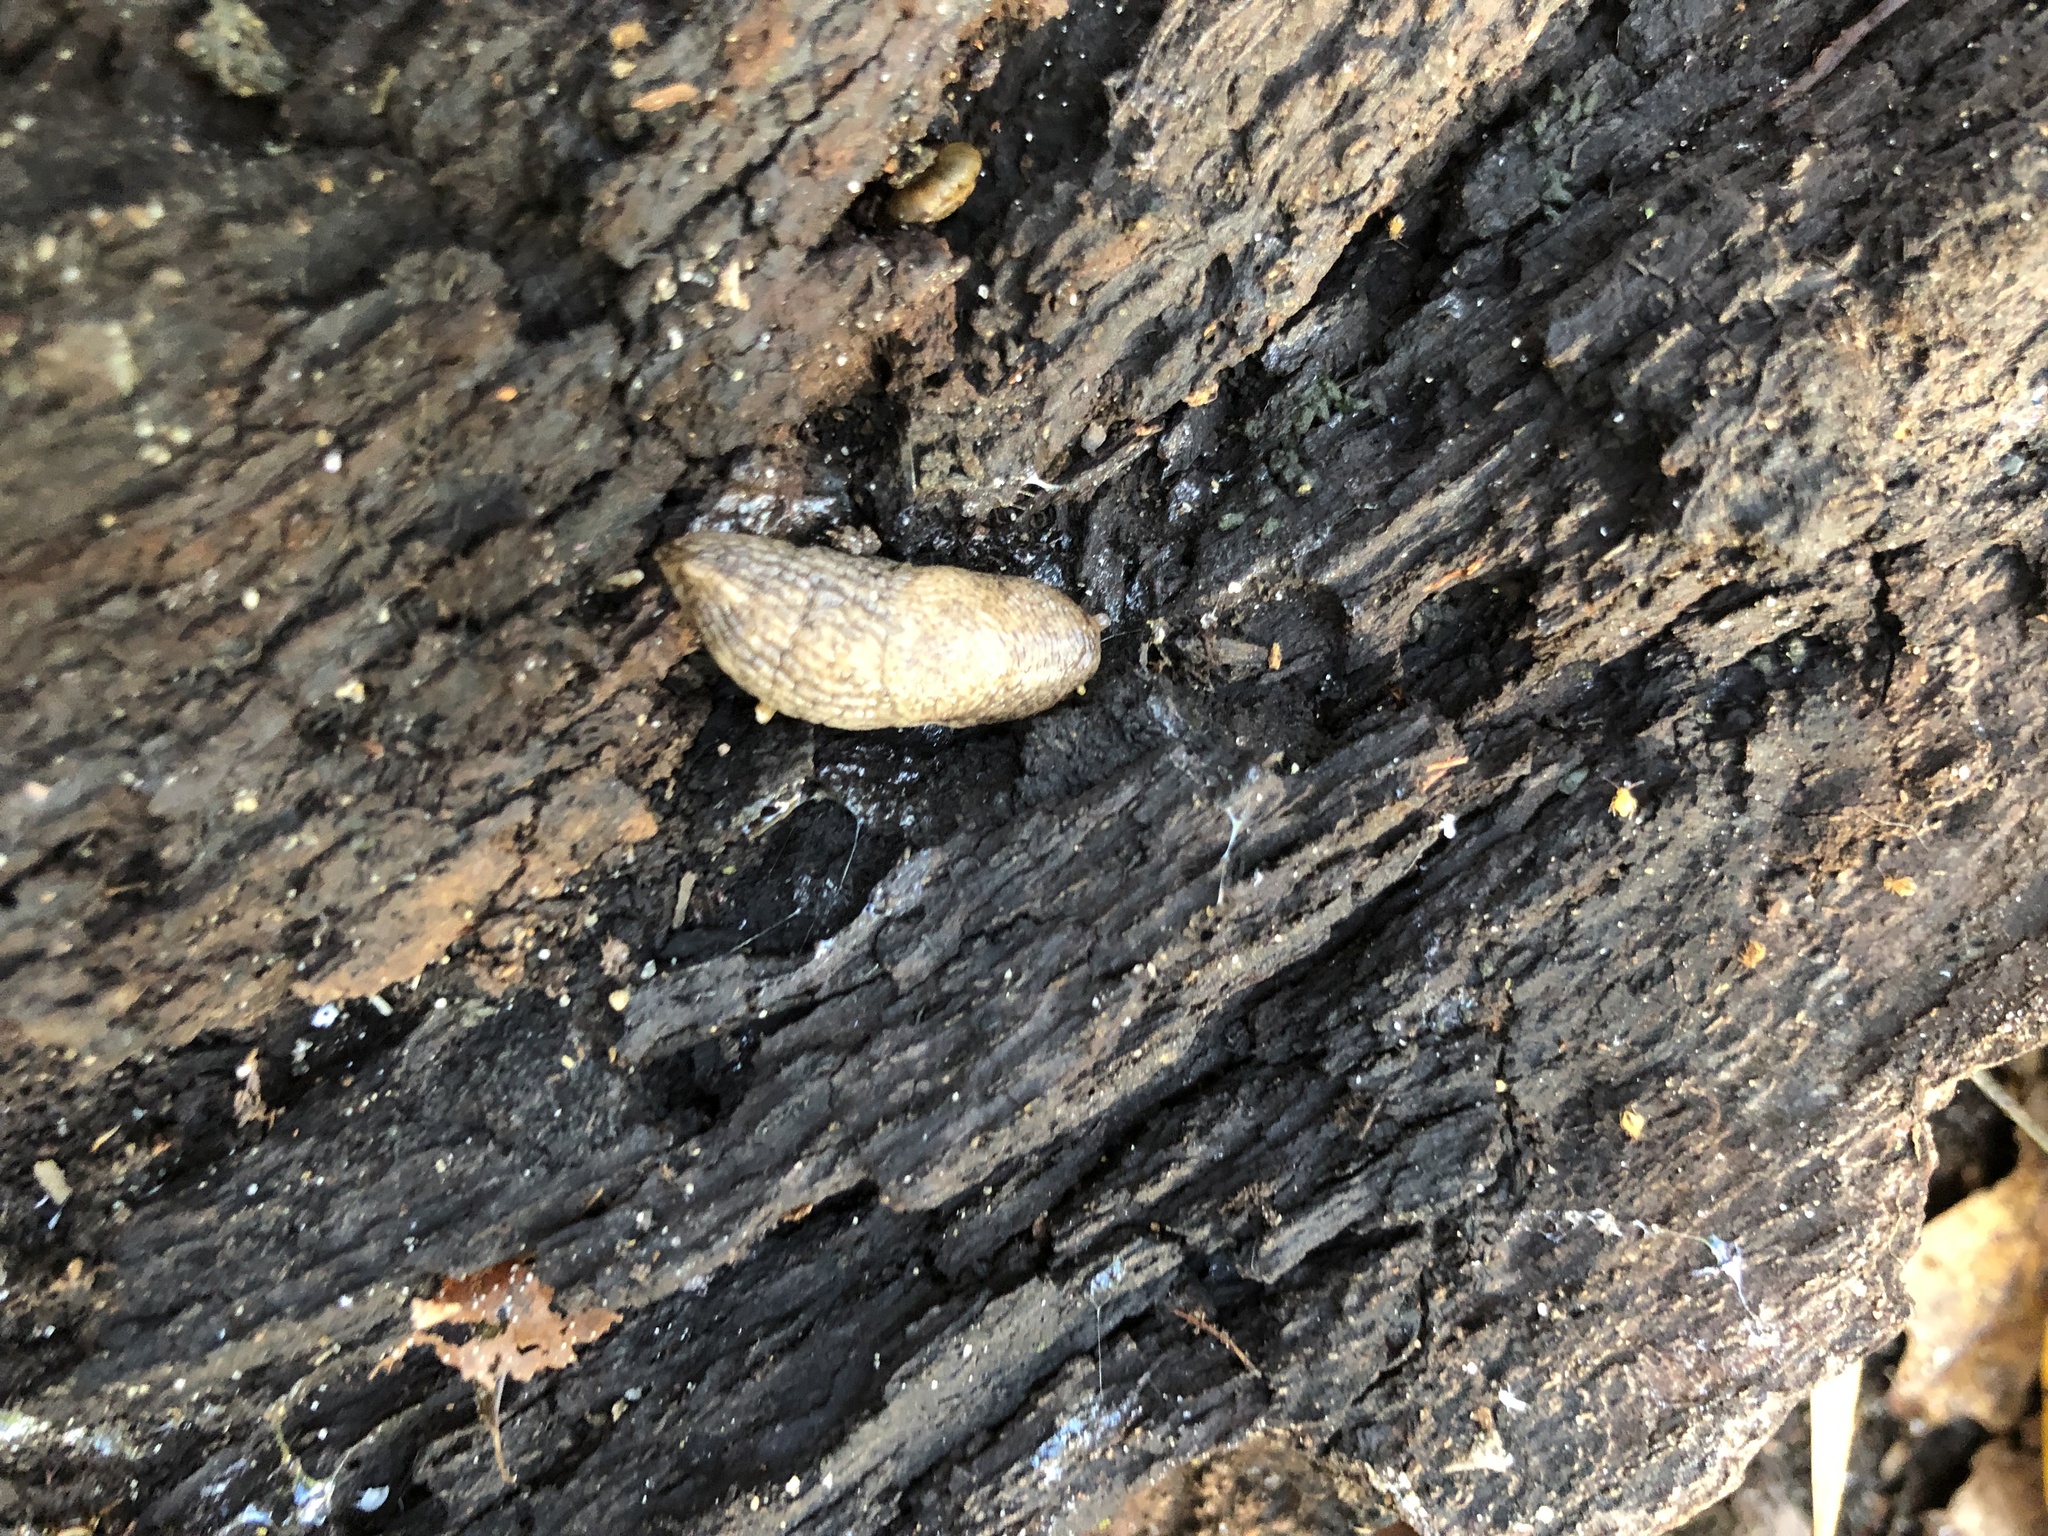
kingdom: Animalia
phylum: Mollusca
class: Gastropoda
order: Stylommatophora
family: Agriolimacidae
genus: Deroceras
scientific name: Deroceras reticulatum
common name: Gray field slug
